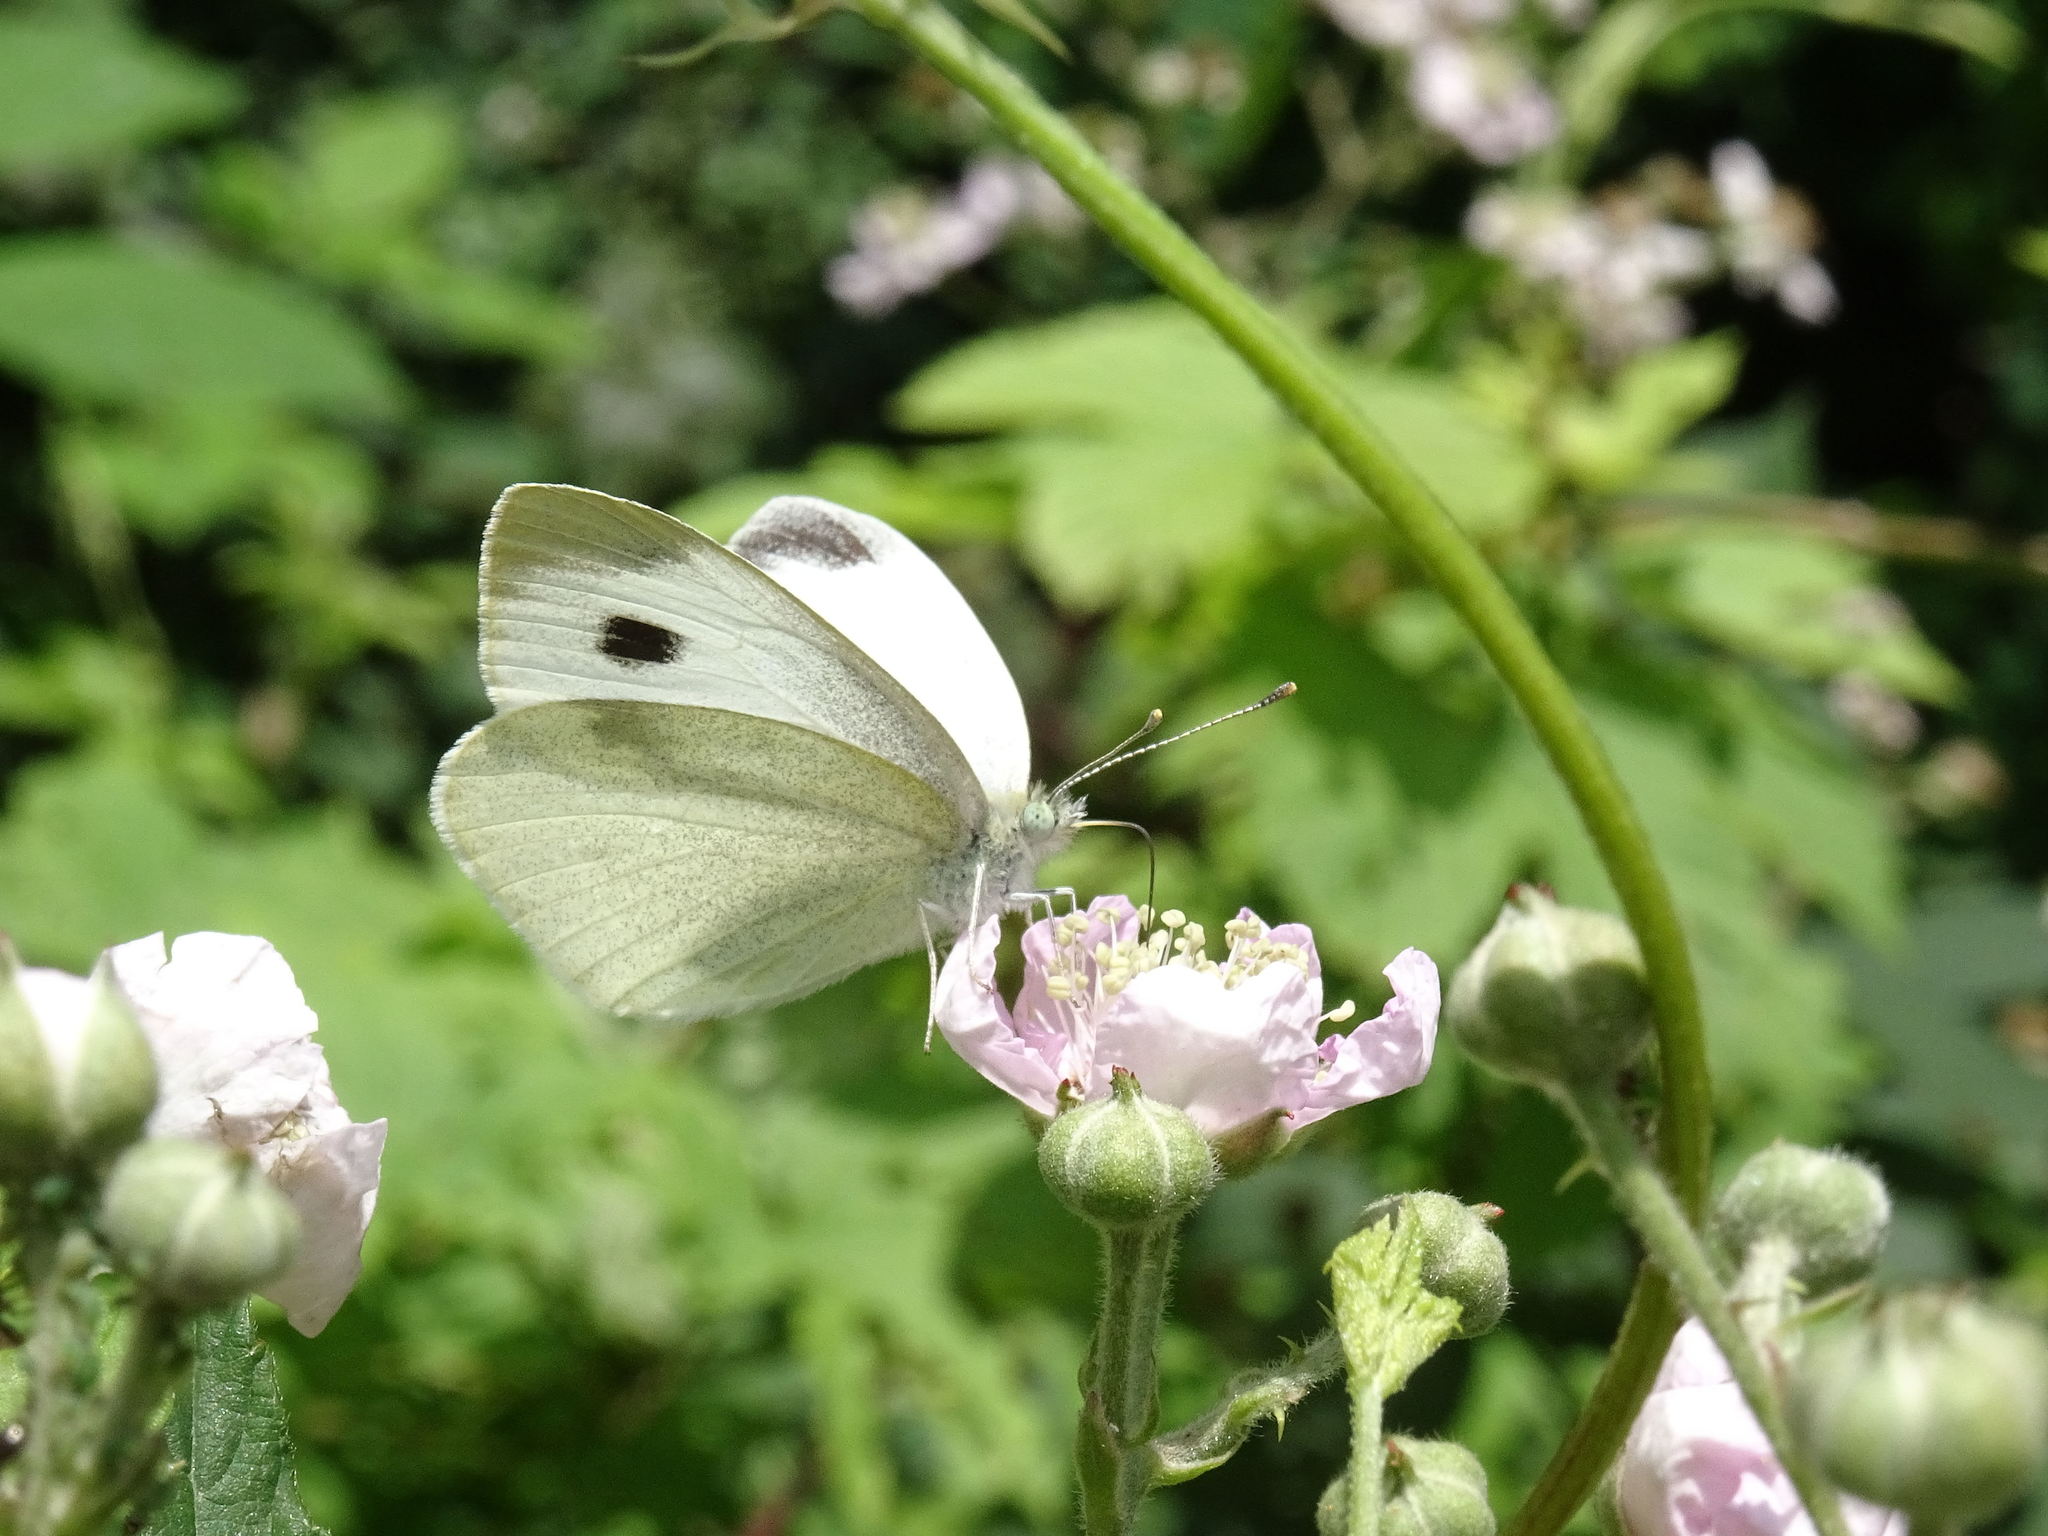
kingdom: Animalia
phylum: Arthropoda
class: Insecta
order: Lepidoptera
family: Pieridae
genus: Pieris
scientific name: Pieris rapae
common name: Small white
